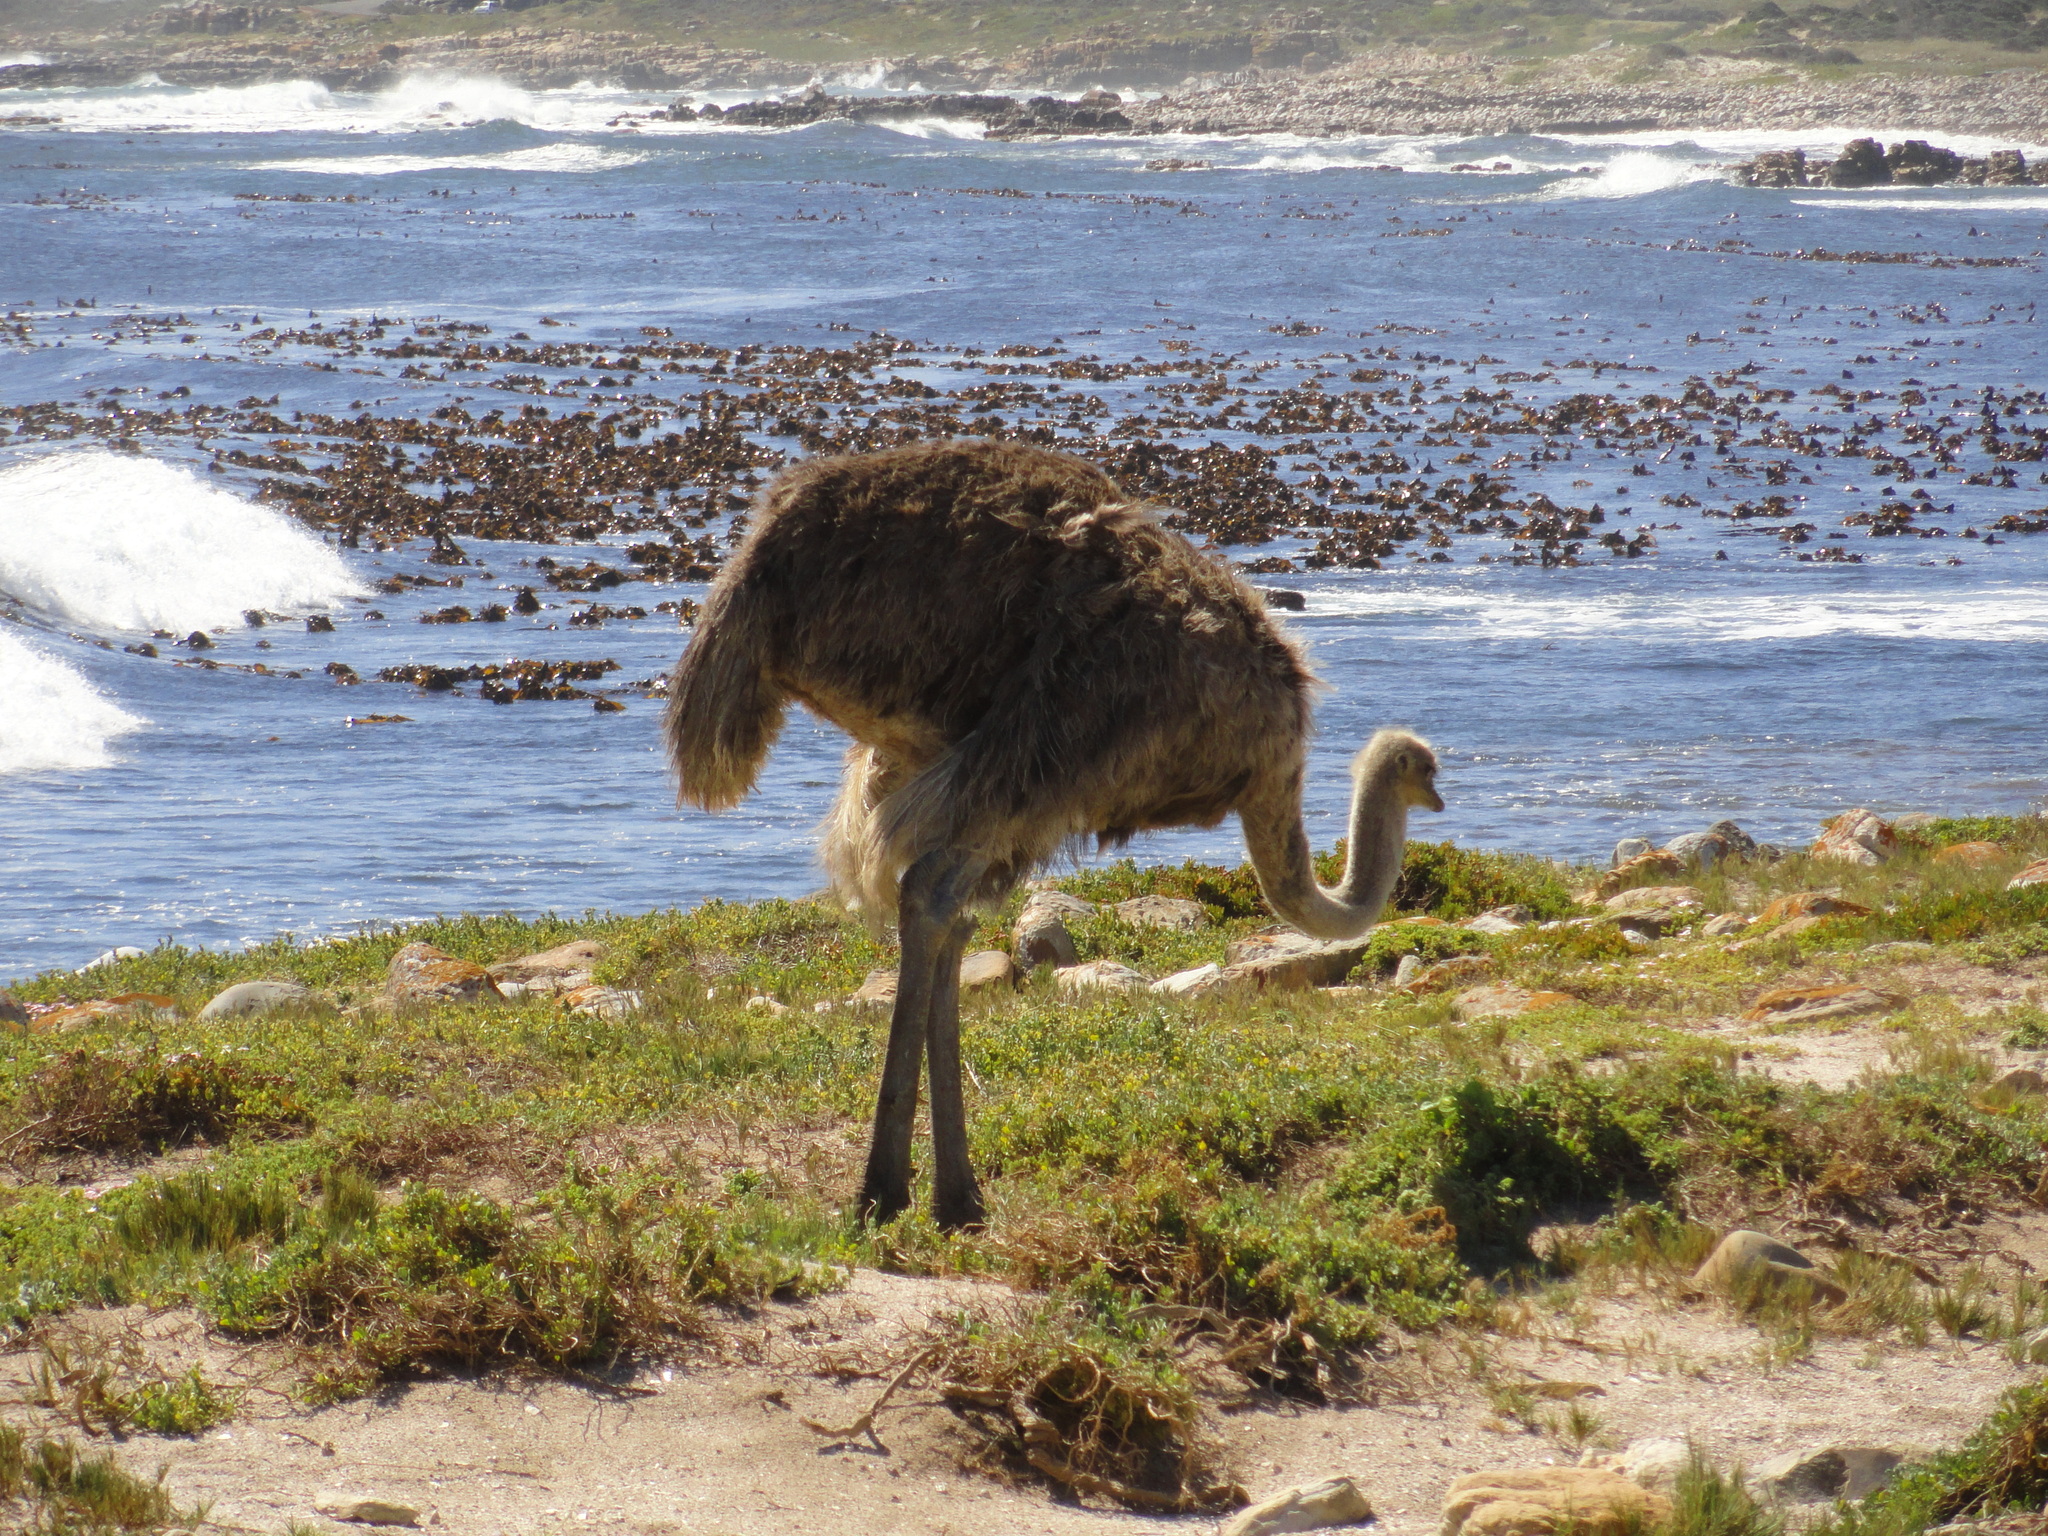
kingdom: Animalia
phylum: Chordata
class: Aves
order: Struthioniformes
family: Struthionidae
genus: Struthio
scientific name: Struthio camelus
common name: Common ostrich
